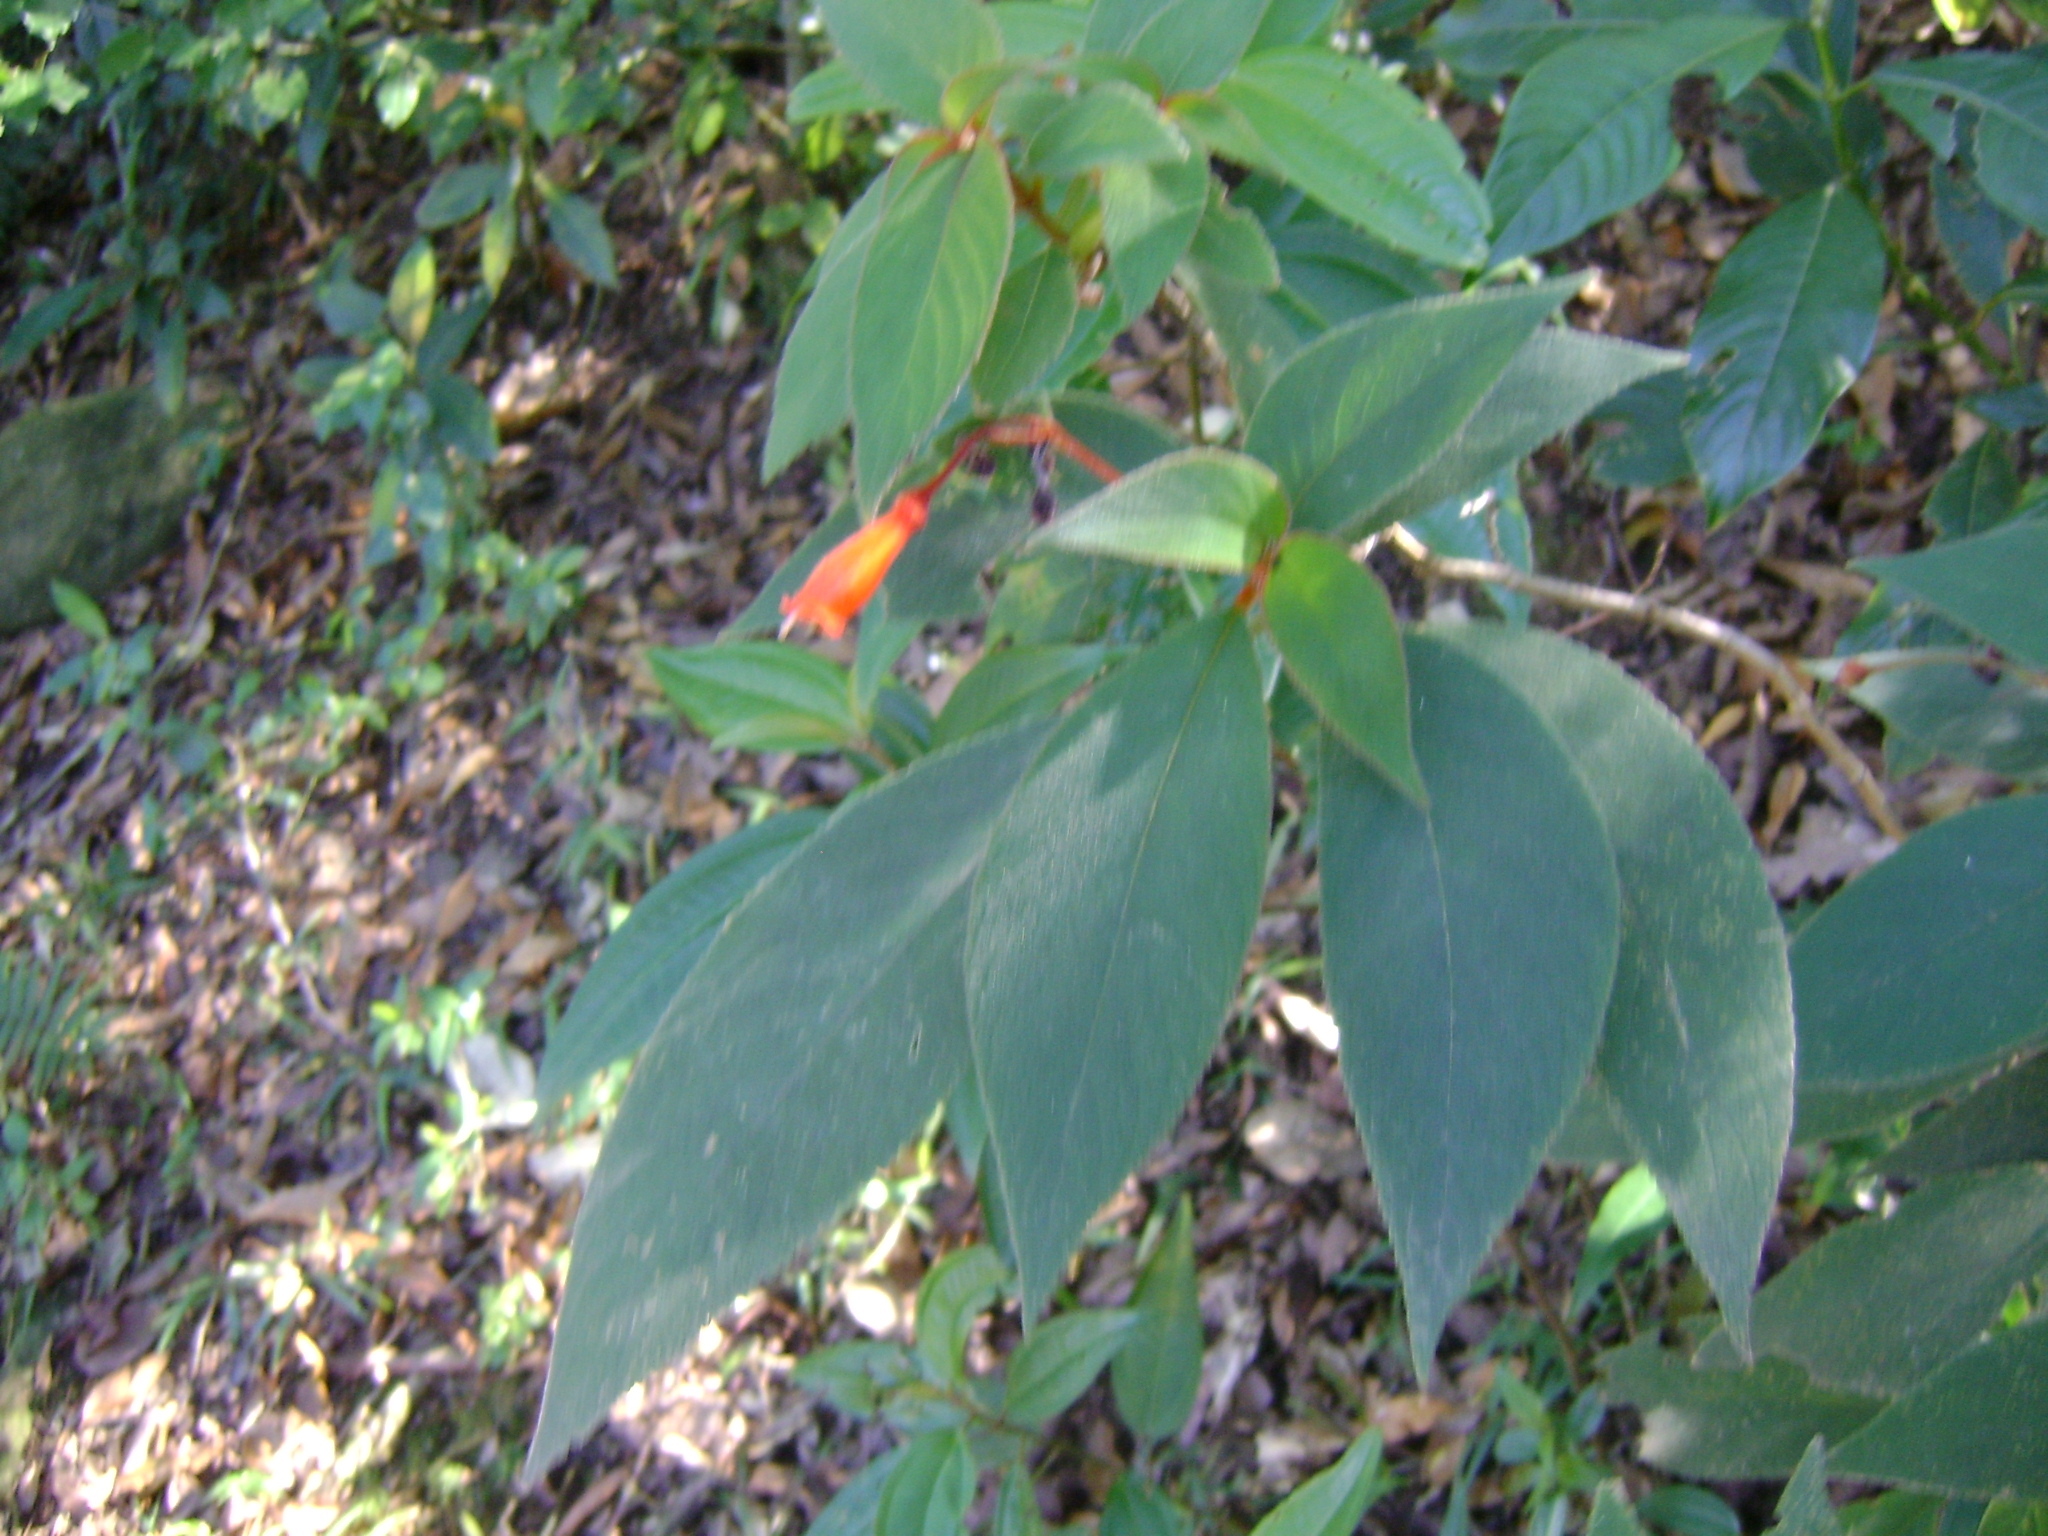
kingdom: Plantae
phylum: Tracheophyta
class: Magnoliopsida
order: Lamiales
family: Gesneriaceae
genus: Moussonia
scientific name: Moussonia deppeana
